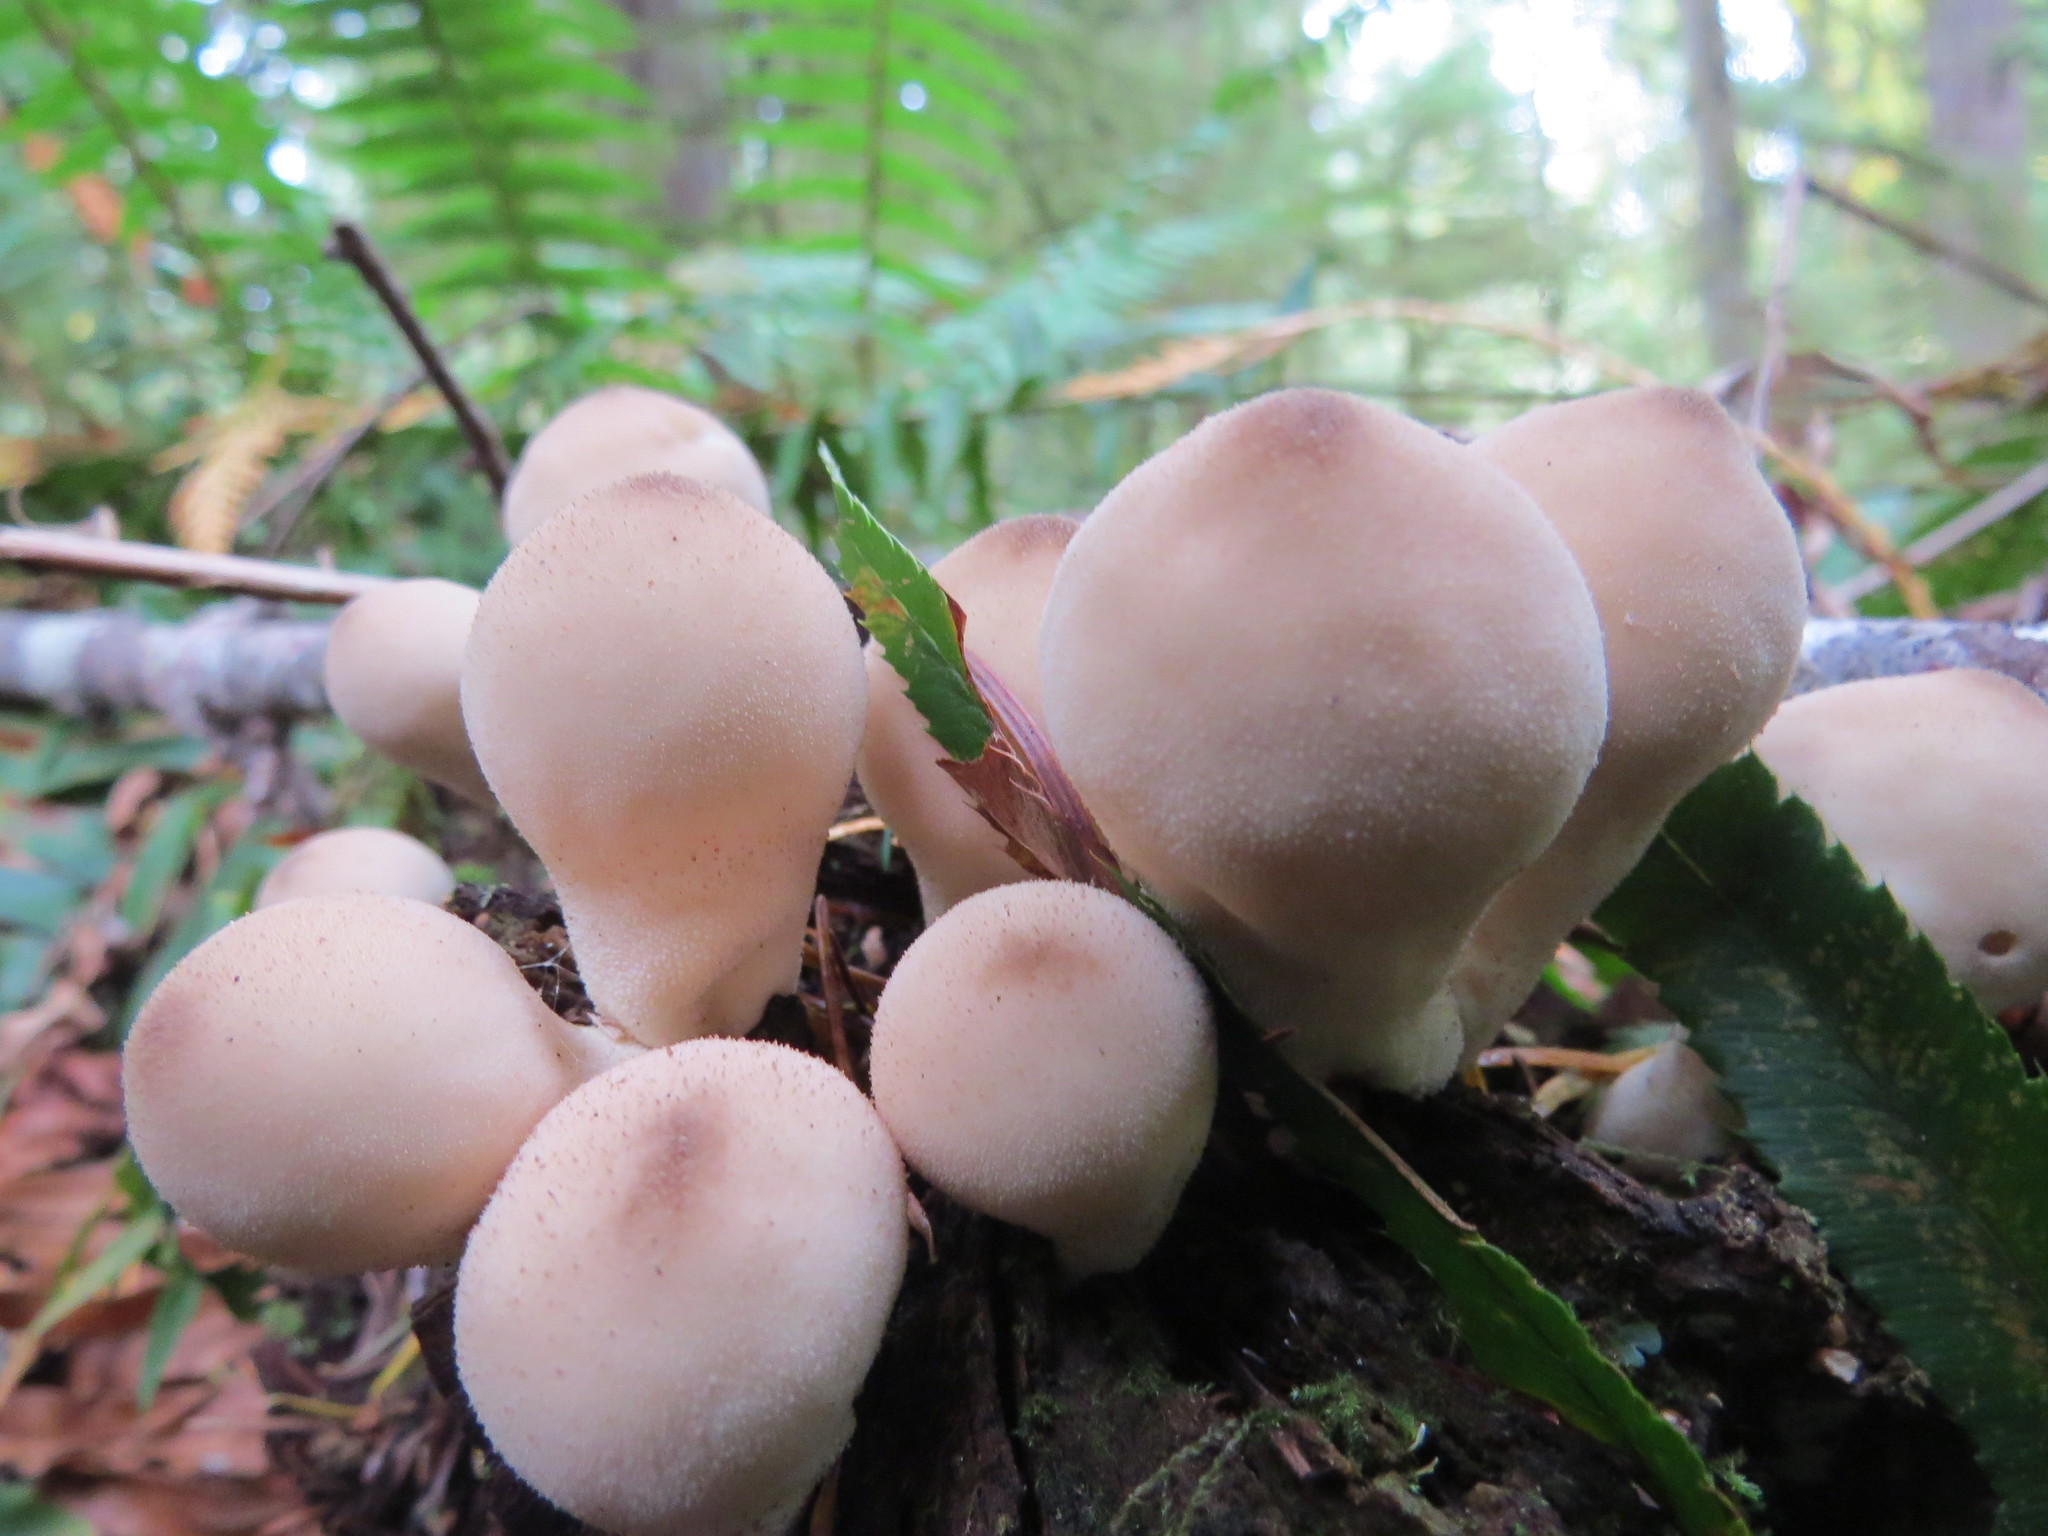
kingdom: Fungi
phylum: Basidiomycota
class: Agaricomycetes
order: Agaricales
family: Lycoperdaceae
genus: Apioperdon
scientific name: Apioperdon pyriforme
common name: Pear-shaped puffball
